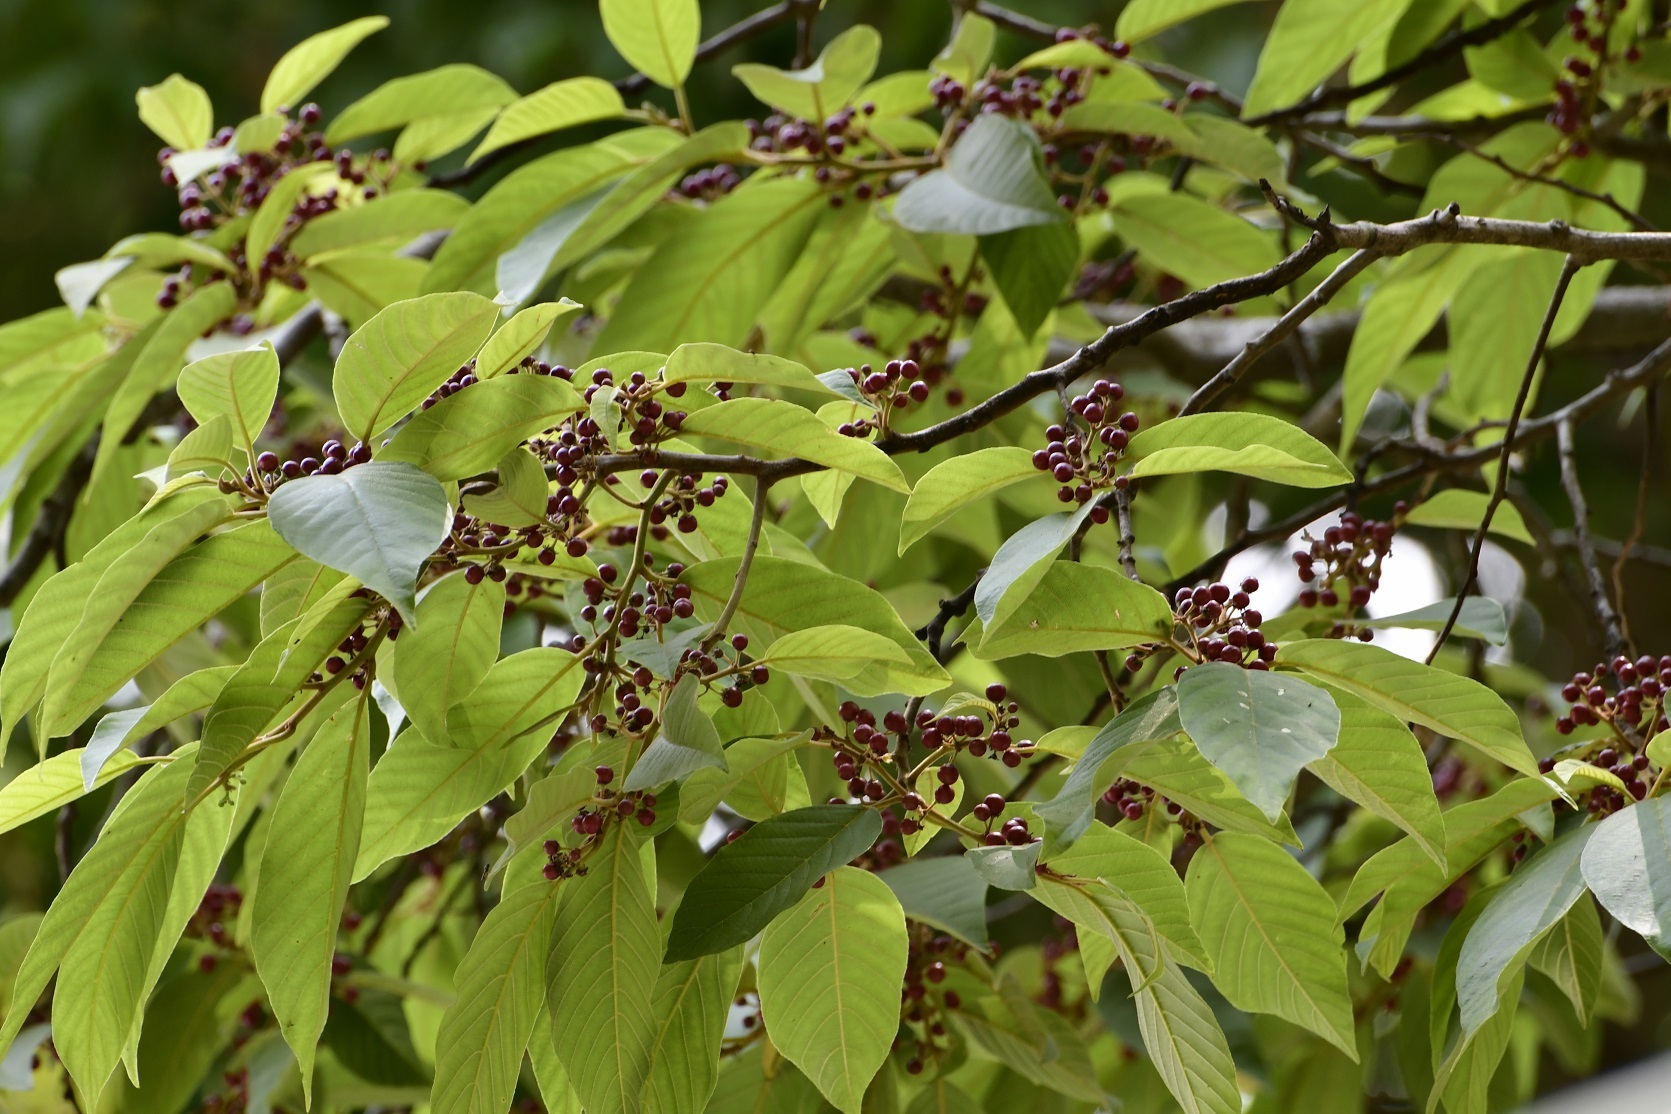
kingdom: Plantae
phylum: Tracheophyta
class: Magnoliopsida
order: Rosales
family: Rhamnaceae
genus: Frangula
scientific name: Frangula capreifolia
